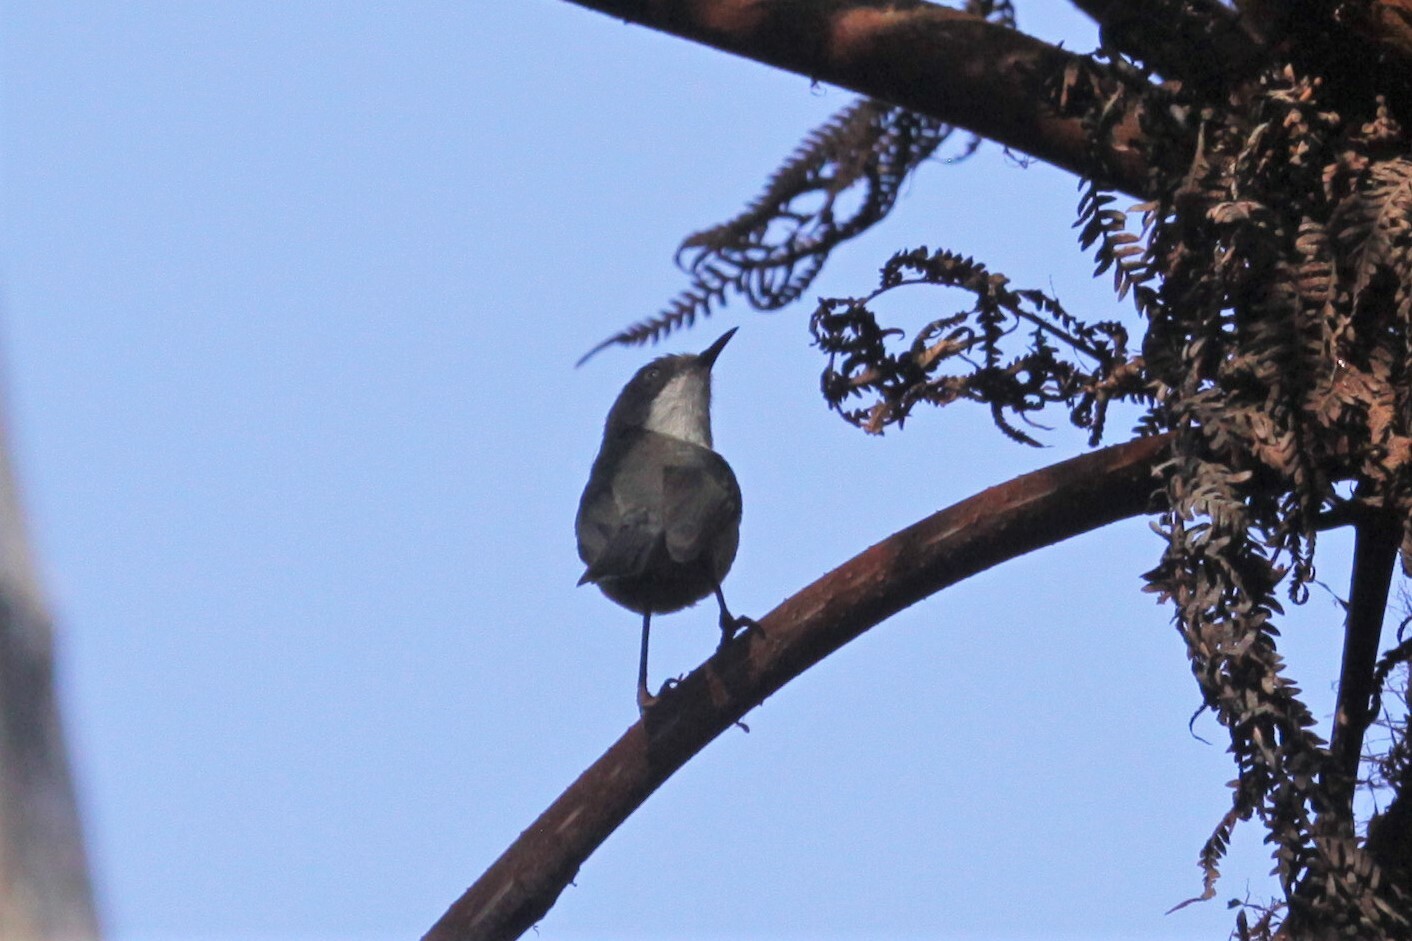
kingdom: Animalia
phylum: Chordata
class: Aves
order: Passeriformes
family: Cisticolidae
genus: Apalis
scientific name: Apalis thoracica
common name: Bar-throated apalis
